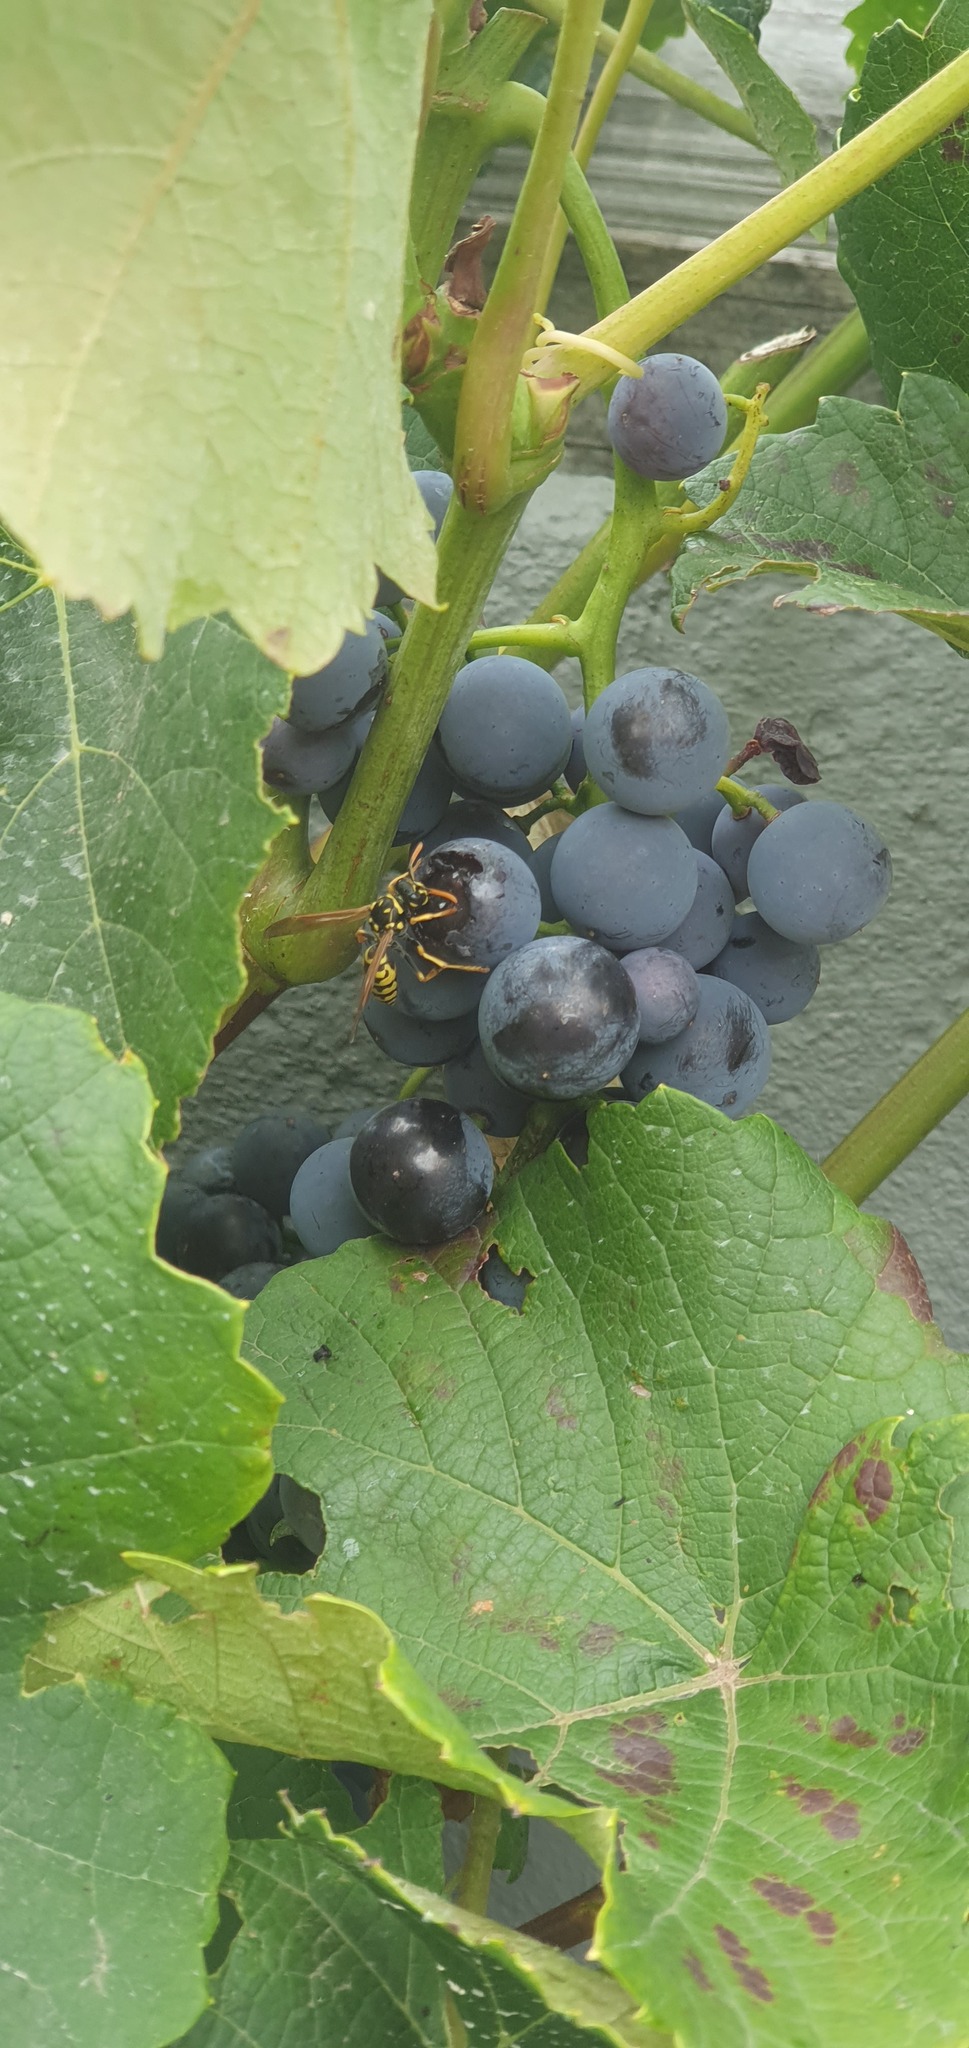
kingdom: Animalia
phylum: Arthropoda
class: Insecta
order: Hymenoptera
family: Eumenidae
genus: Polistes
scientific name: Polistes dominula
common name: Paper wasp
